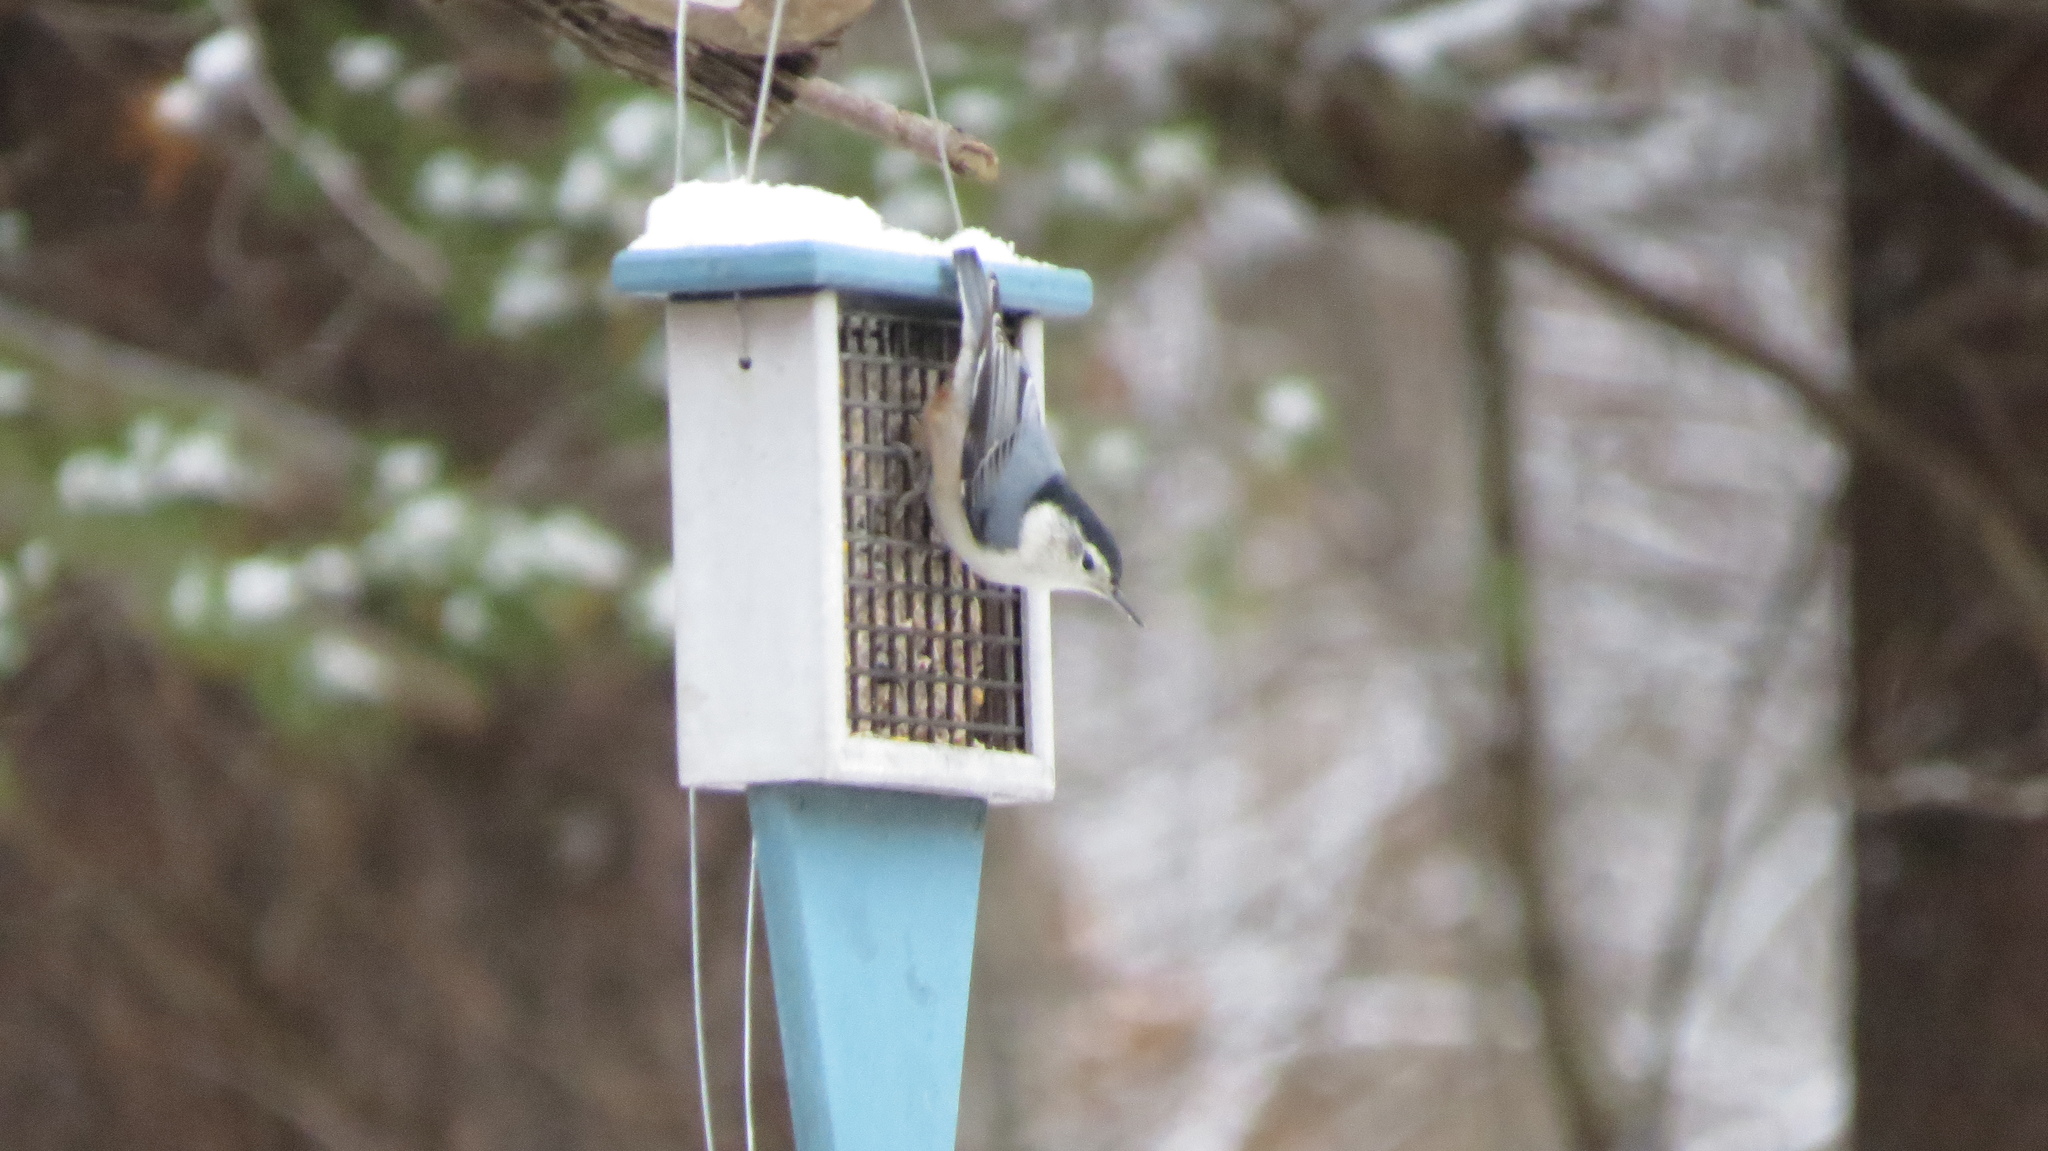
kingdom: Animalia
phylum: Chordata
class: Aves
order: Passeriformes
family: Sittidae
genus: Sitta
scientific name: Sitta carolinensis
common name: White-breasted nuthatch
